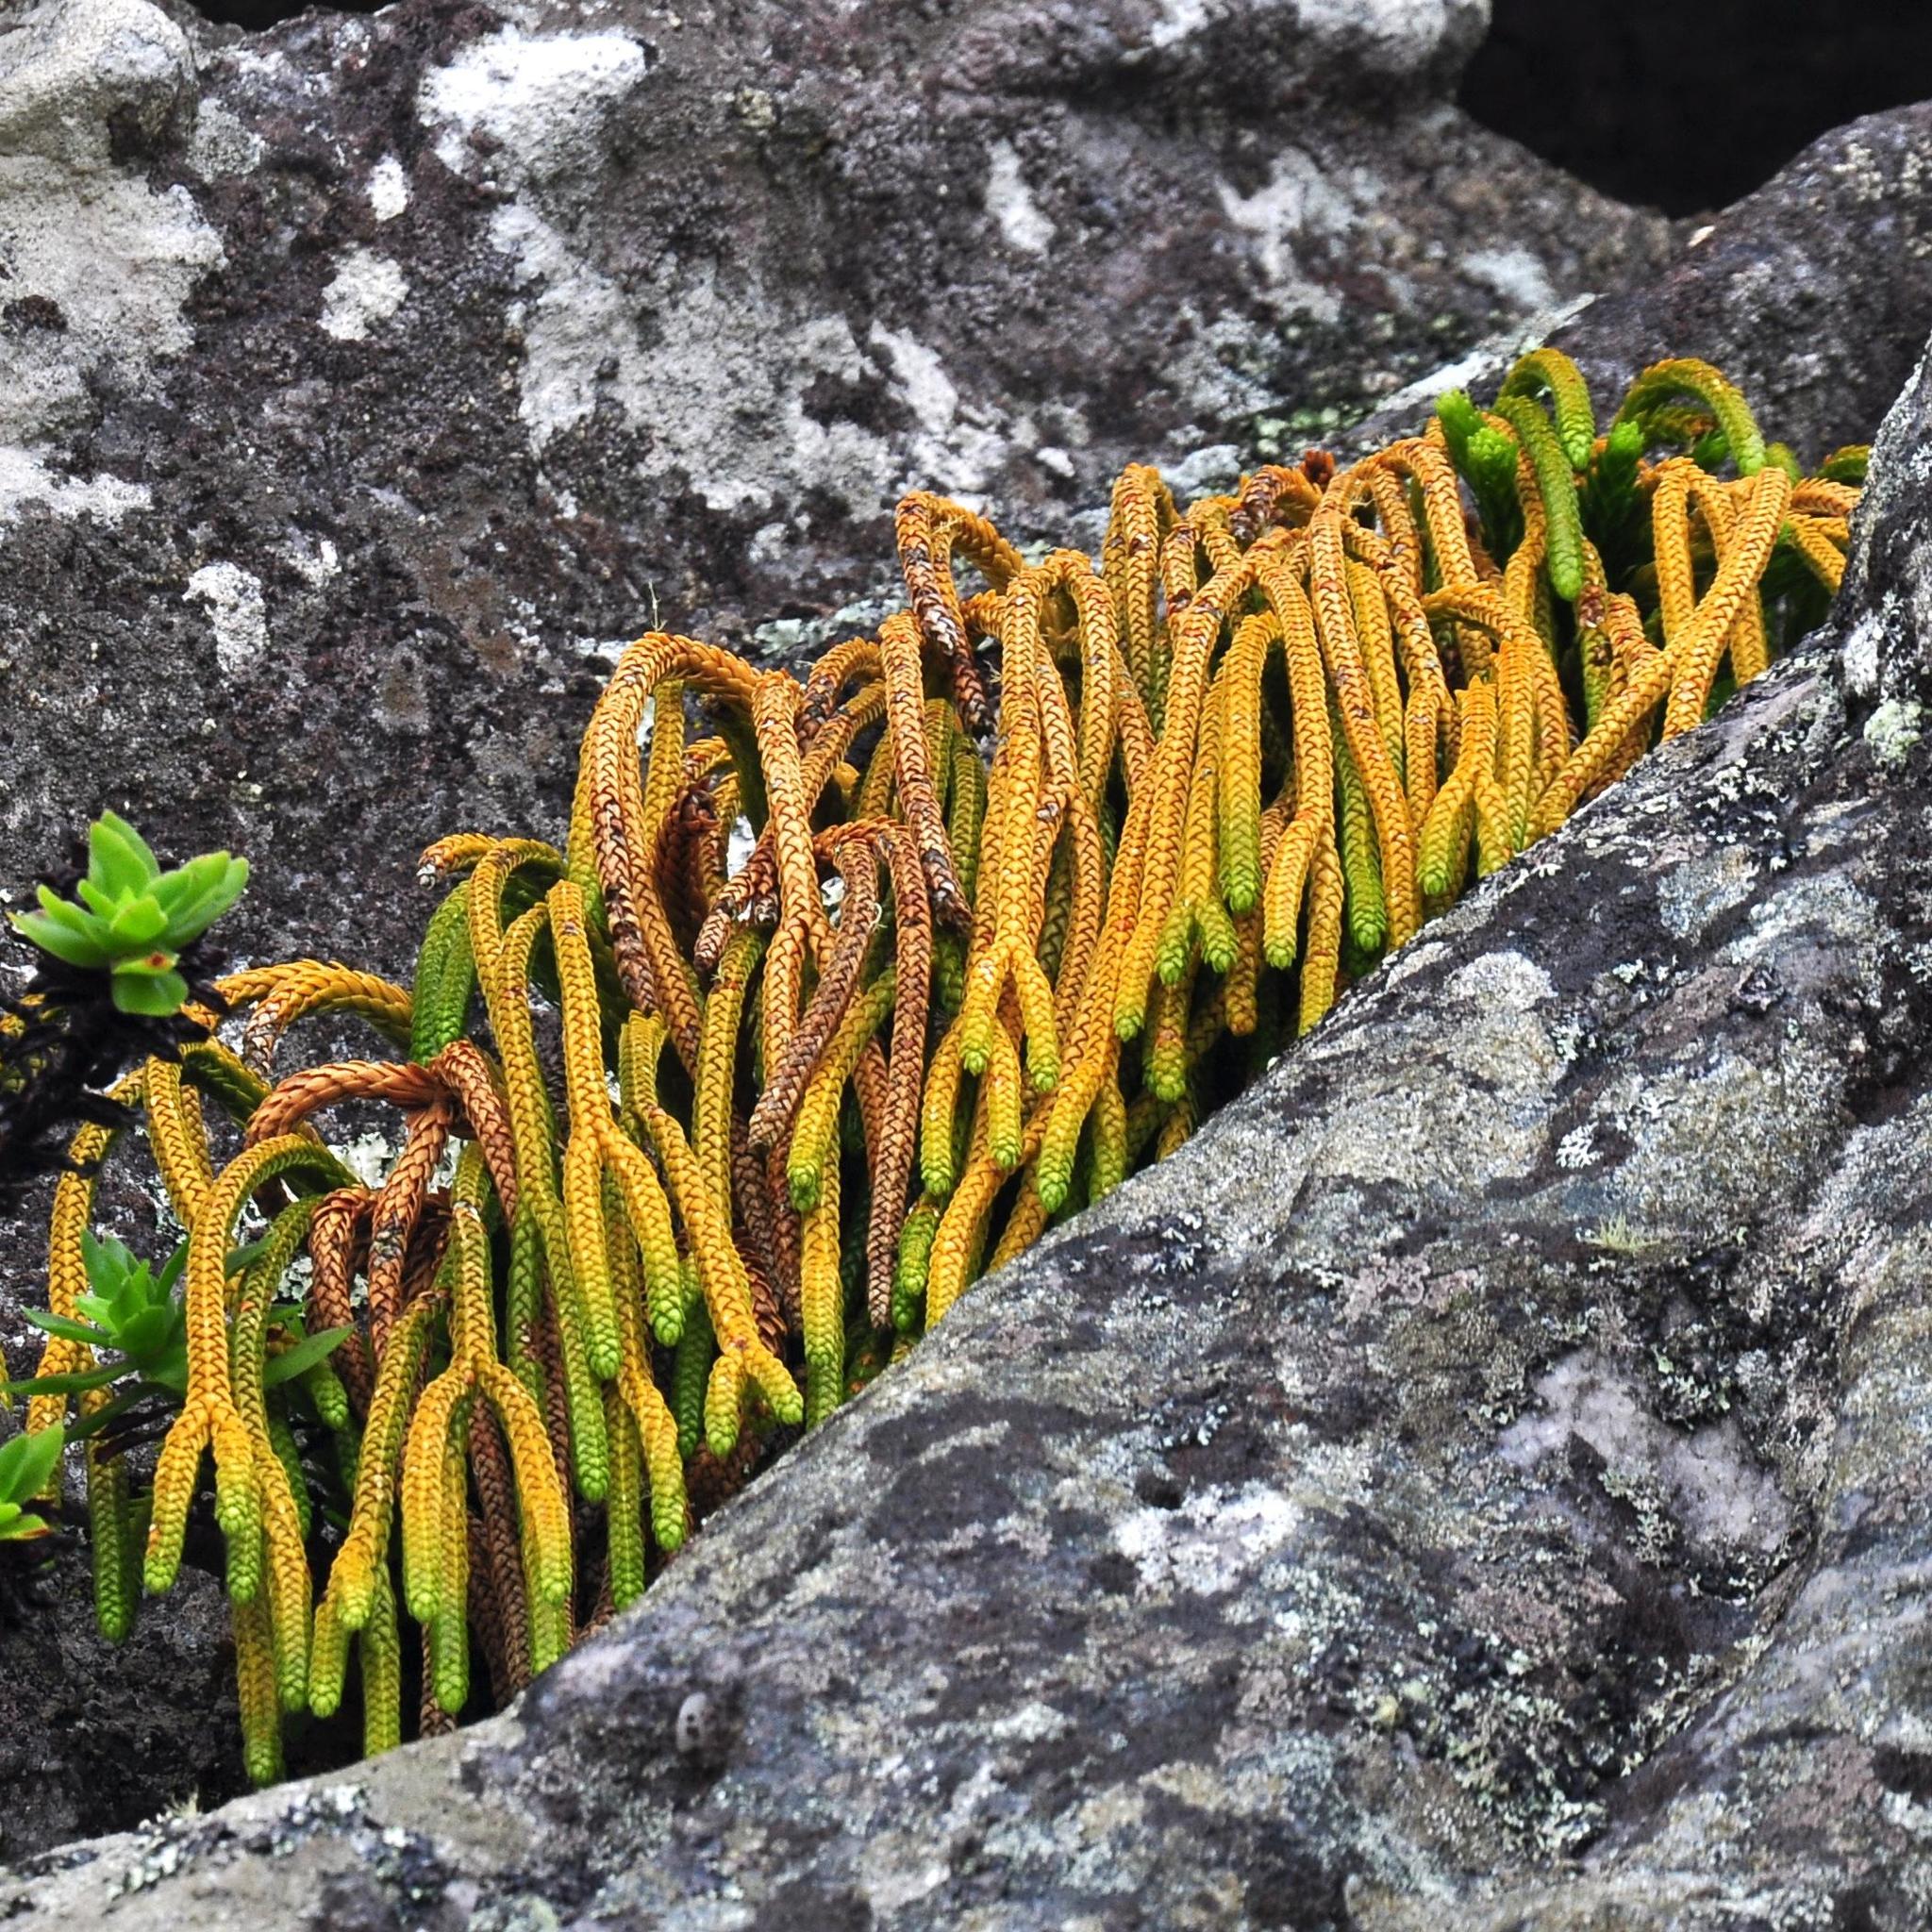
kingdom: Plantae
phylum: Tracheophyta
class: Lycopodiopsida
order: Lycopodiales
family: Lycopodiaceae
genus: Phlegmariurus
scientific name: Phlegmariurus gnidioides
